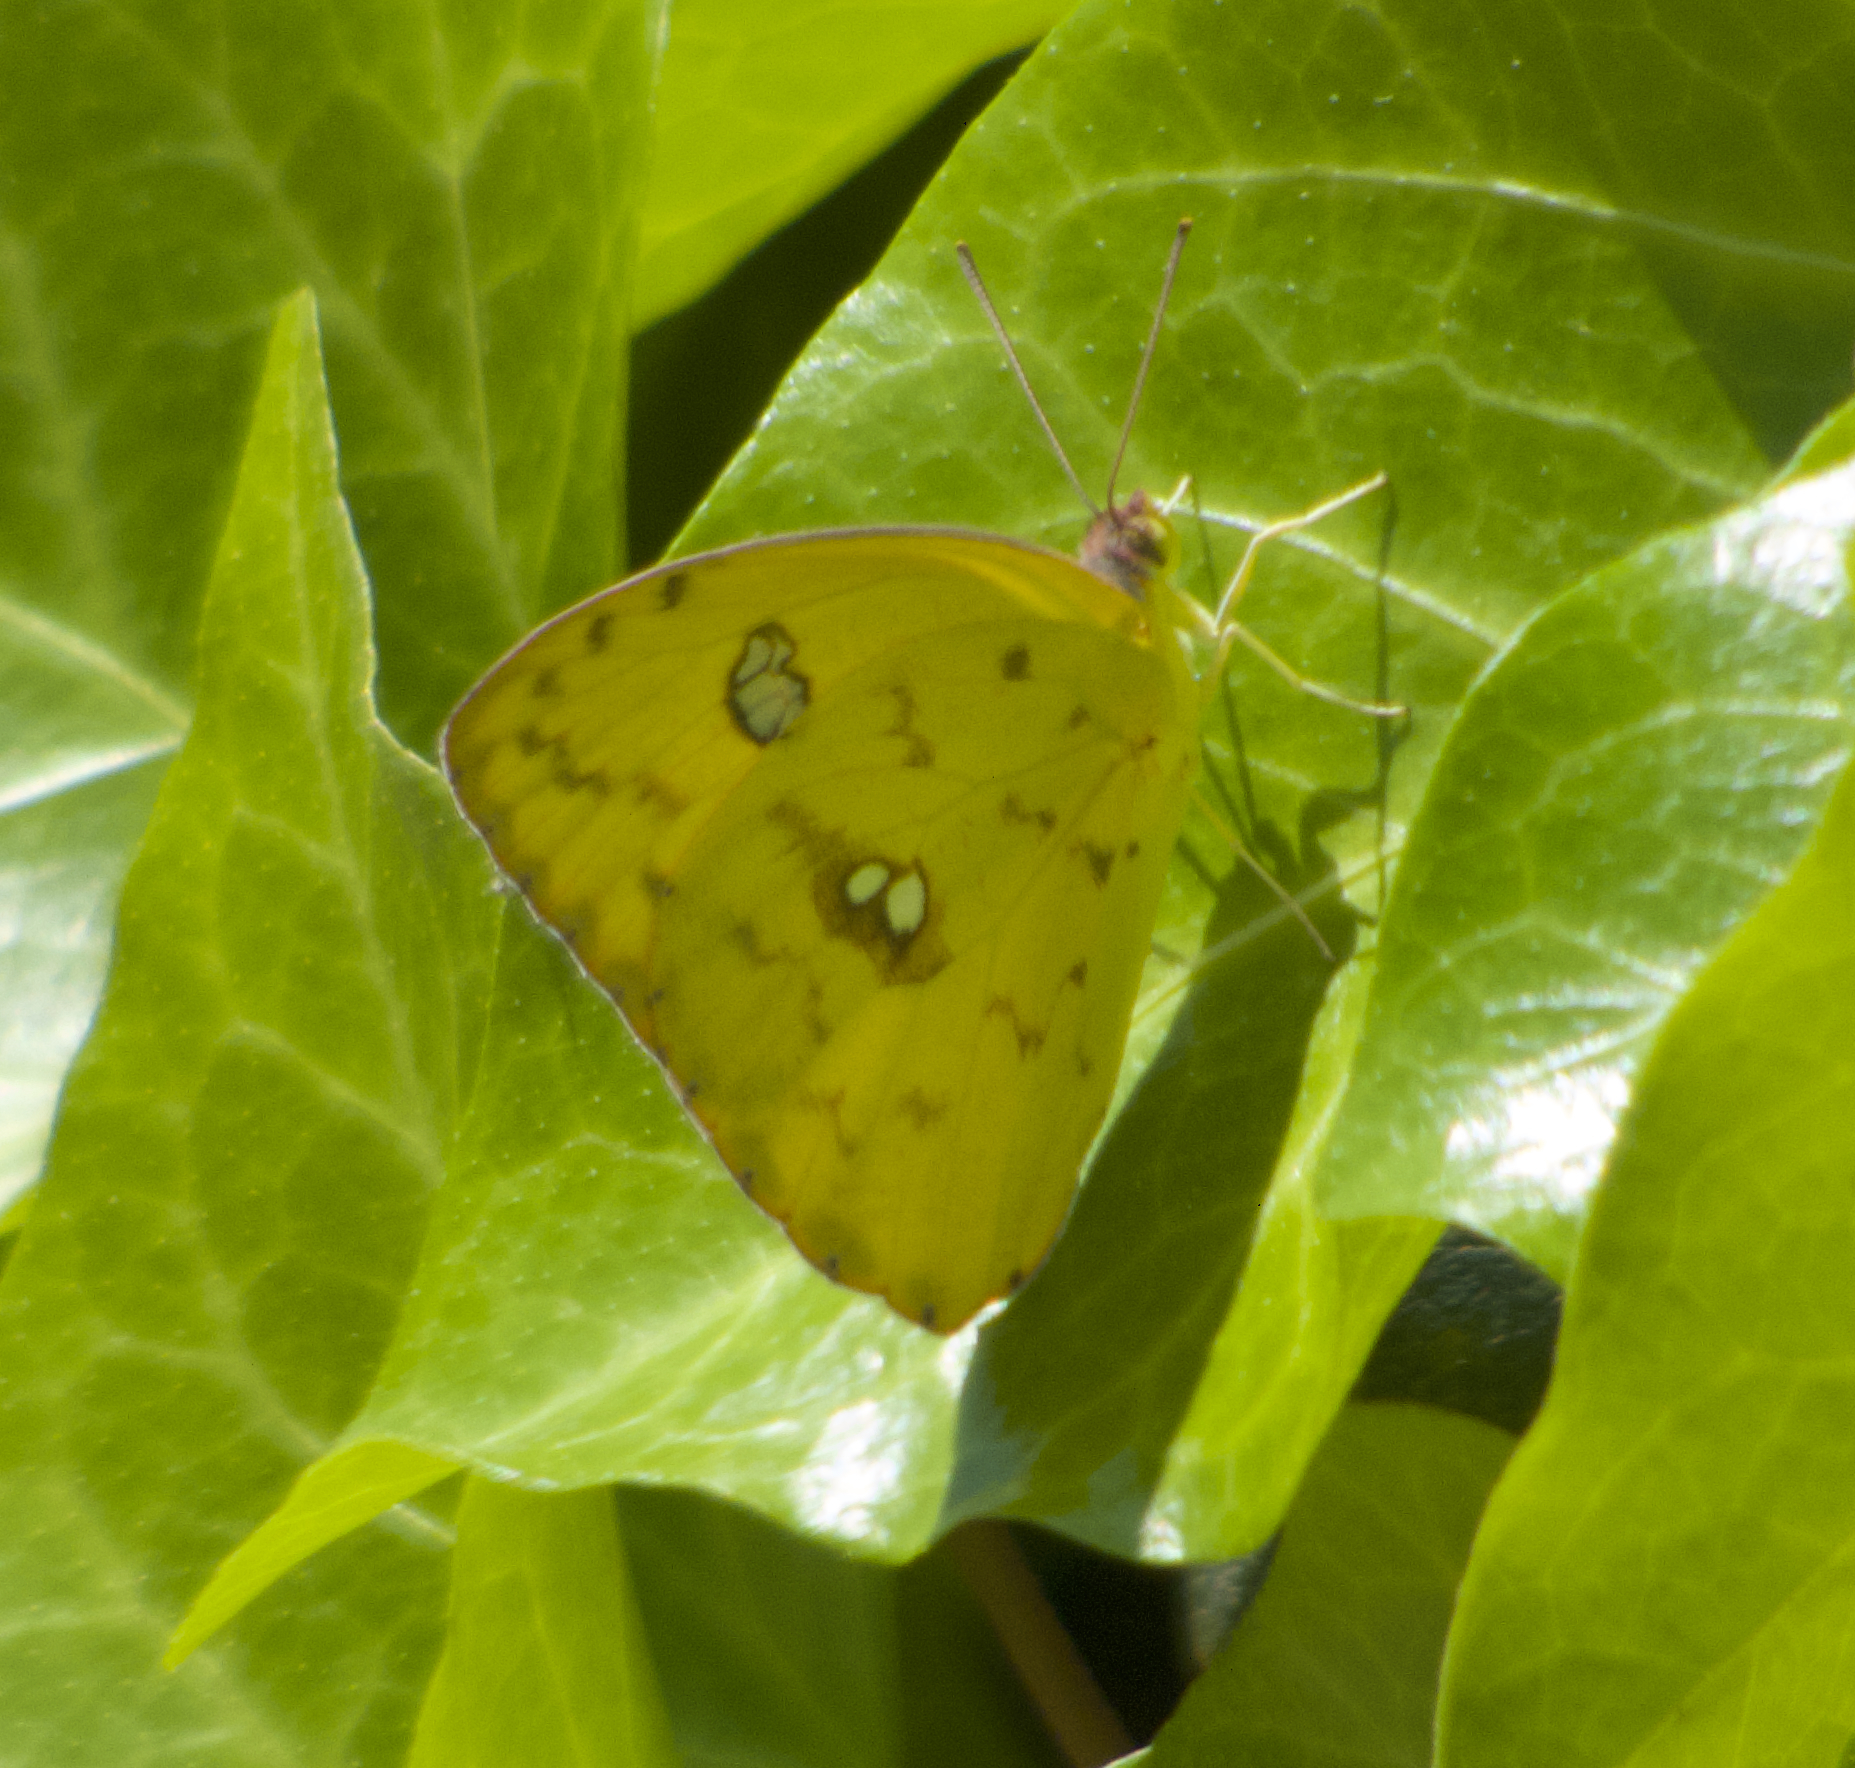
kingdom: Animalia
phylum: Arthropoda
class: Insecta
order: Lepidoptera
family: Pieridae
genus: Phoebis
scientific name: Phoebis sennae
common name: Cloudless sulphur
